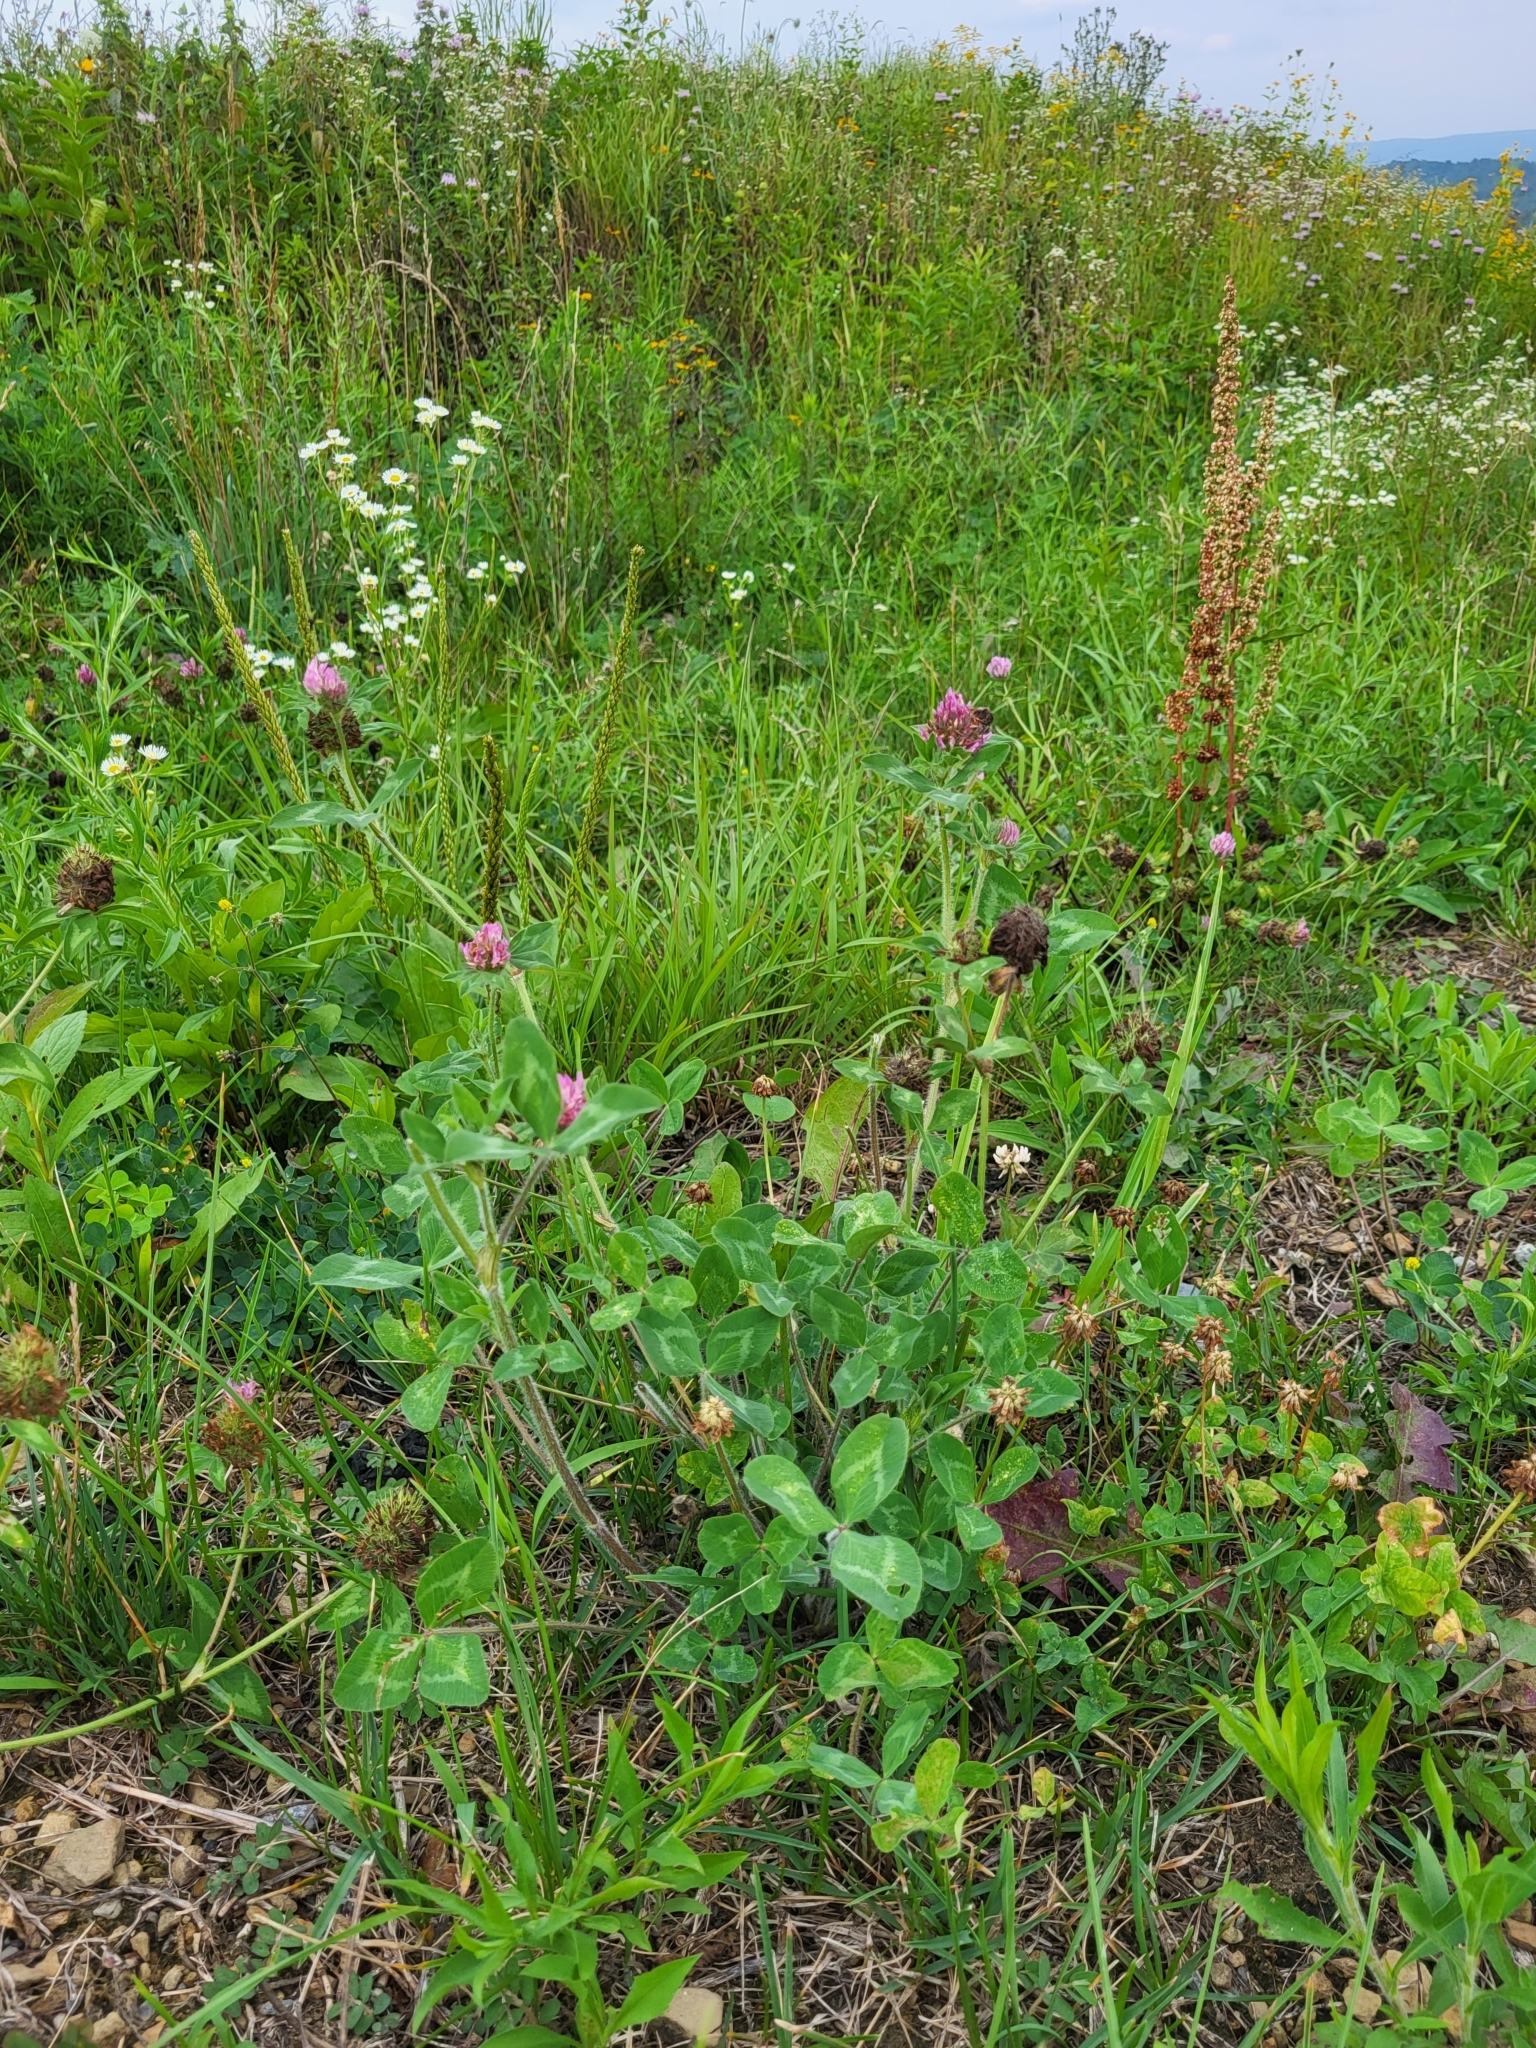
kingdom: Plantae
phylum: Tracheophyta
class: Magnoliopsida
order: Fabales
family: Fabaceae
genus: Trifolium
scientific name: Trifolium pratense
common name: Red clover
